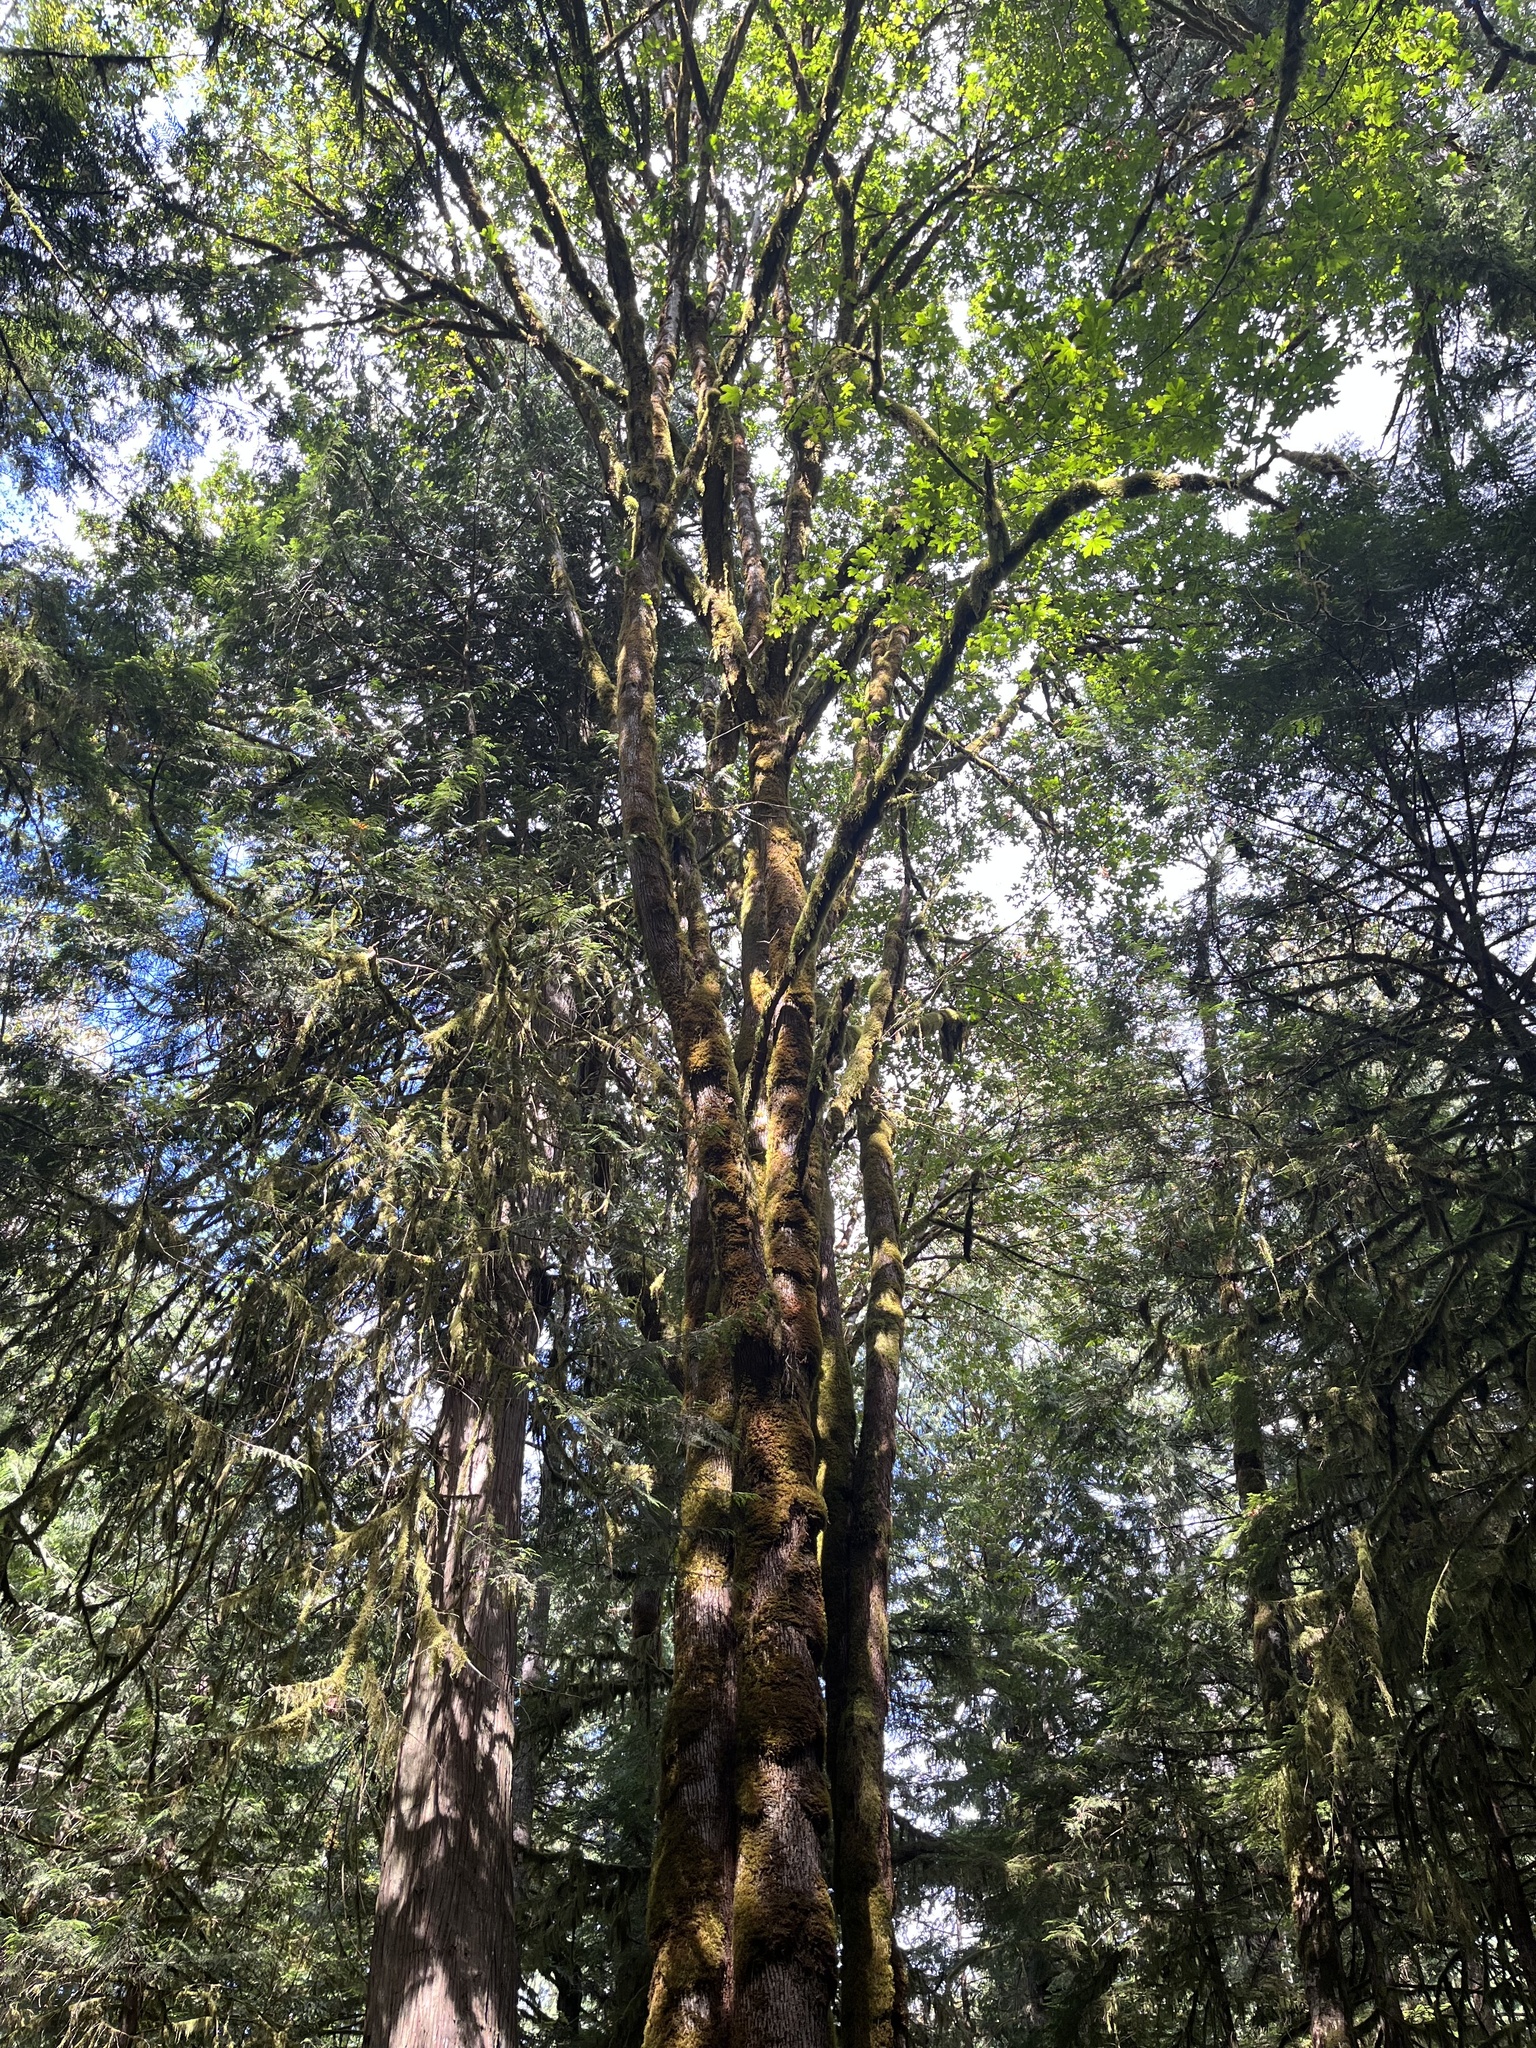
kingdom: Plantae
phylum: Tracheophyta
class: Magnoliopsida
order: Sapindales
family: Sapindaceae
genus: Acer
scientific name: Acer macrophyllum
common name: Oregon maple
